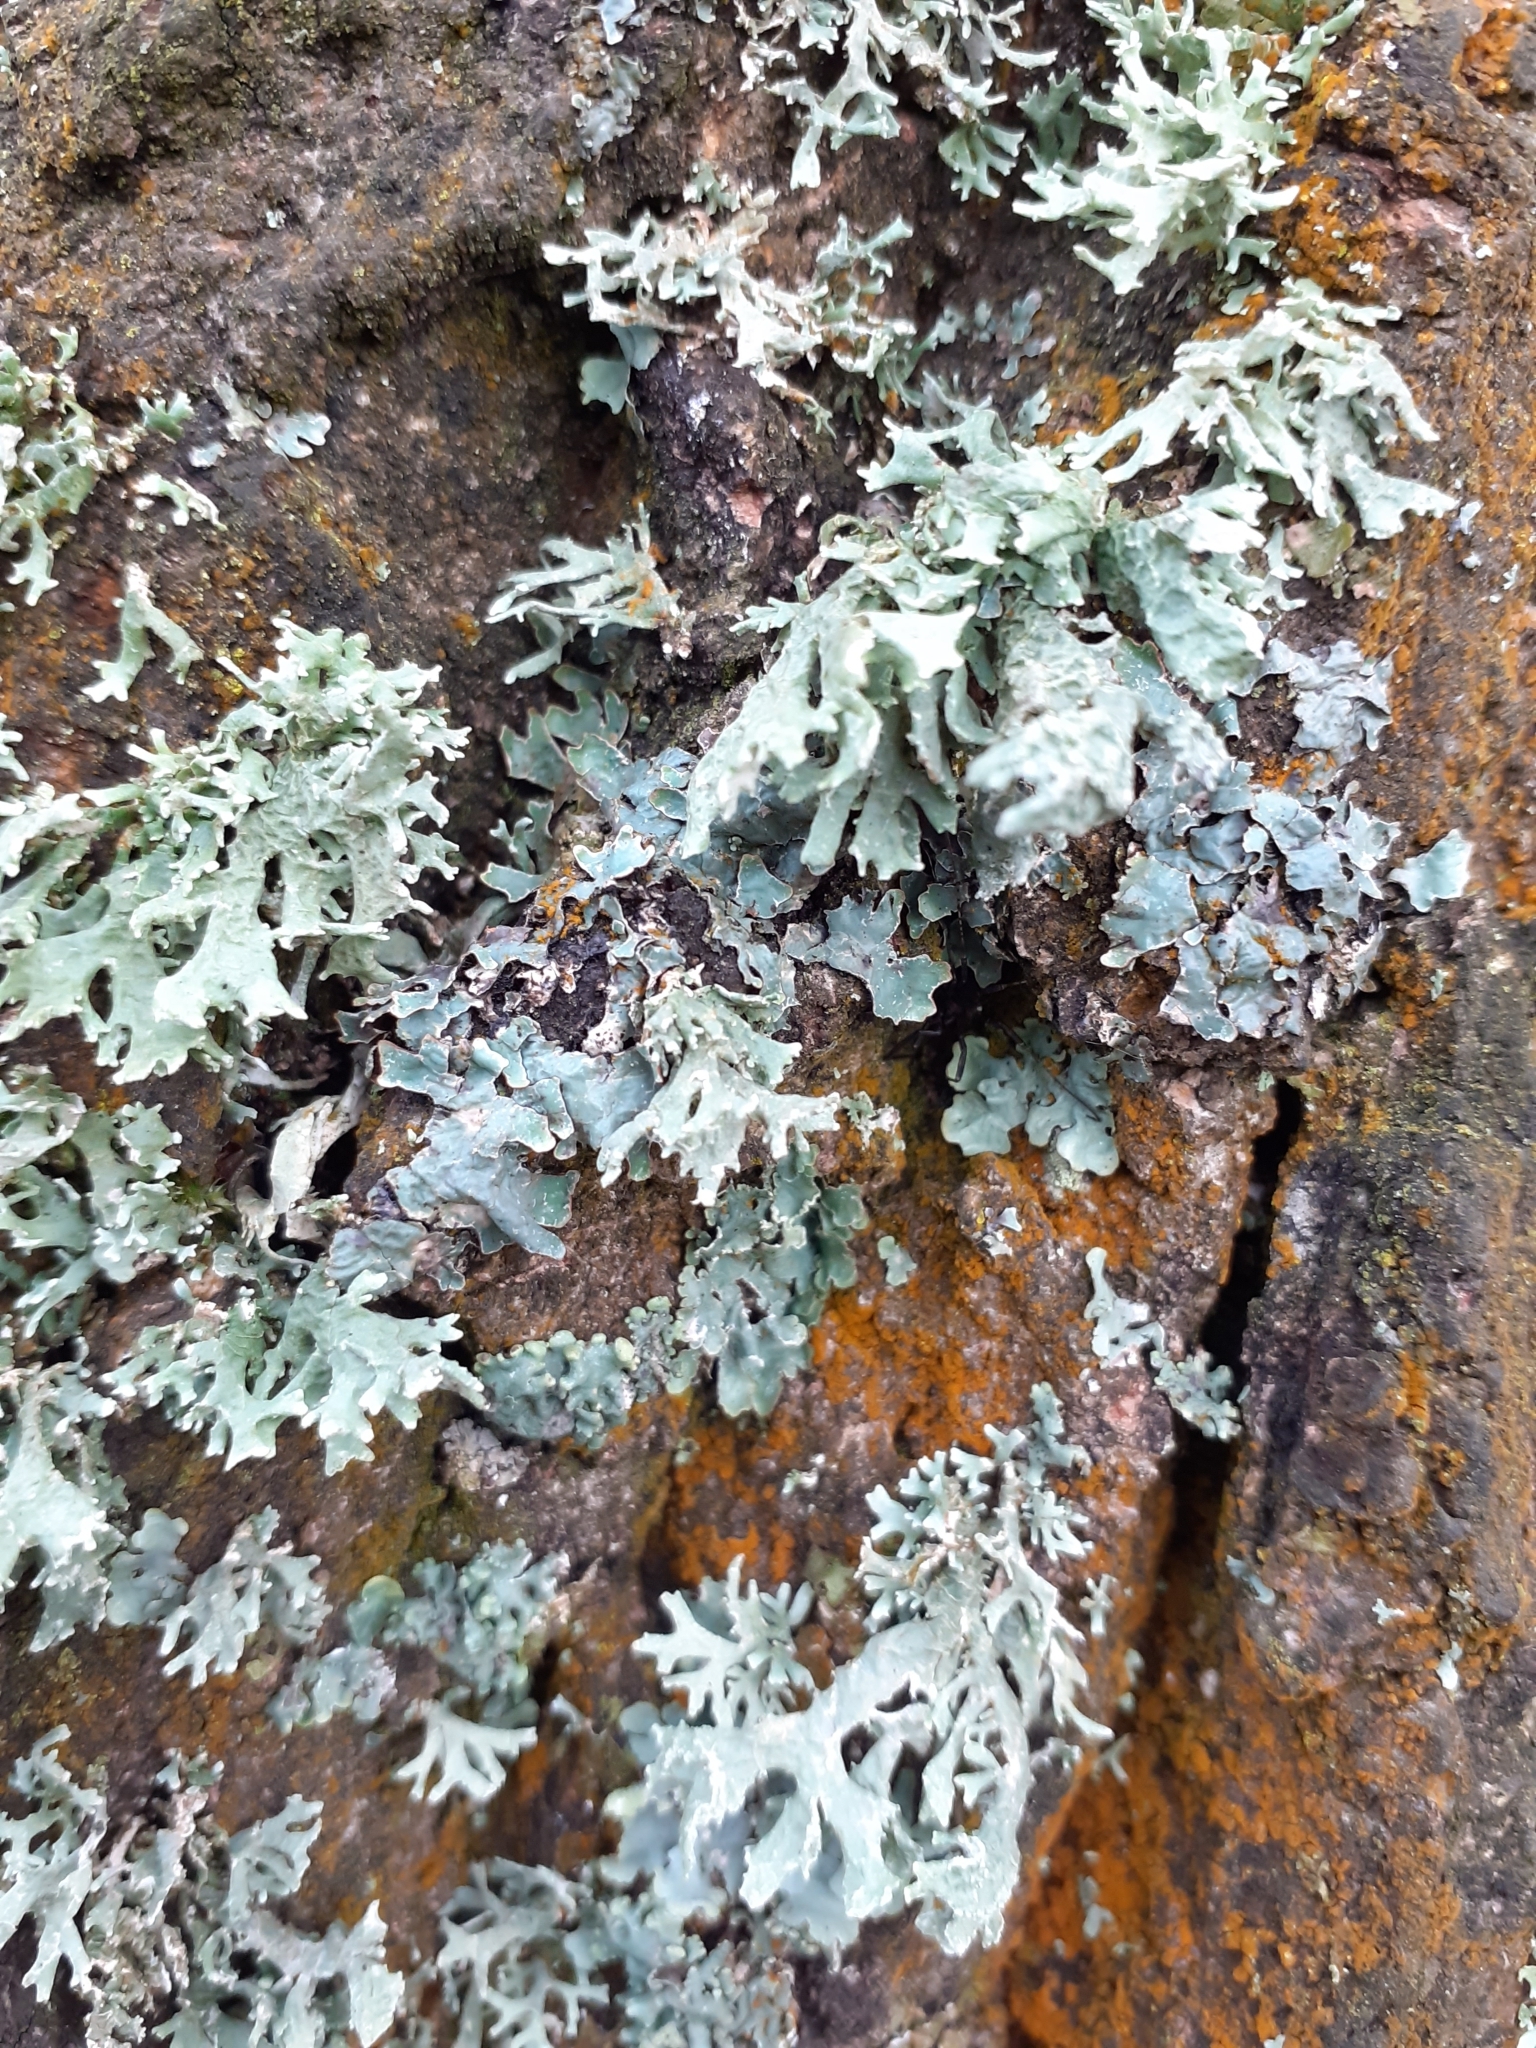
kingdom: Fungi
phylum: Ascomycota
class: Lecanoromycetes
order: Lecanorales
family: Parmeliaceae
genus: Evernia
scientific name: Evernia prunastri
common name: Oak moss
